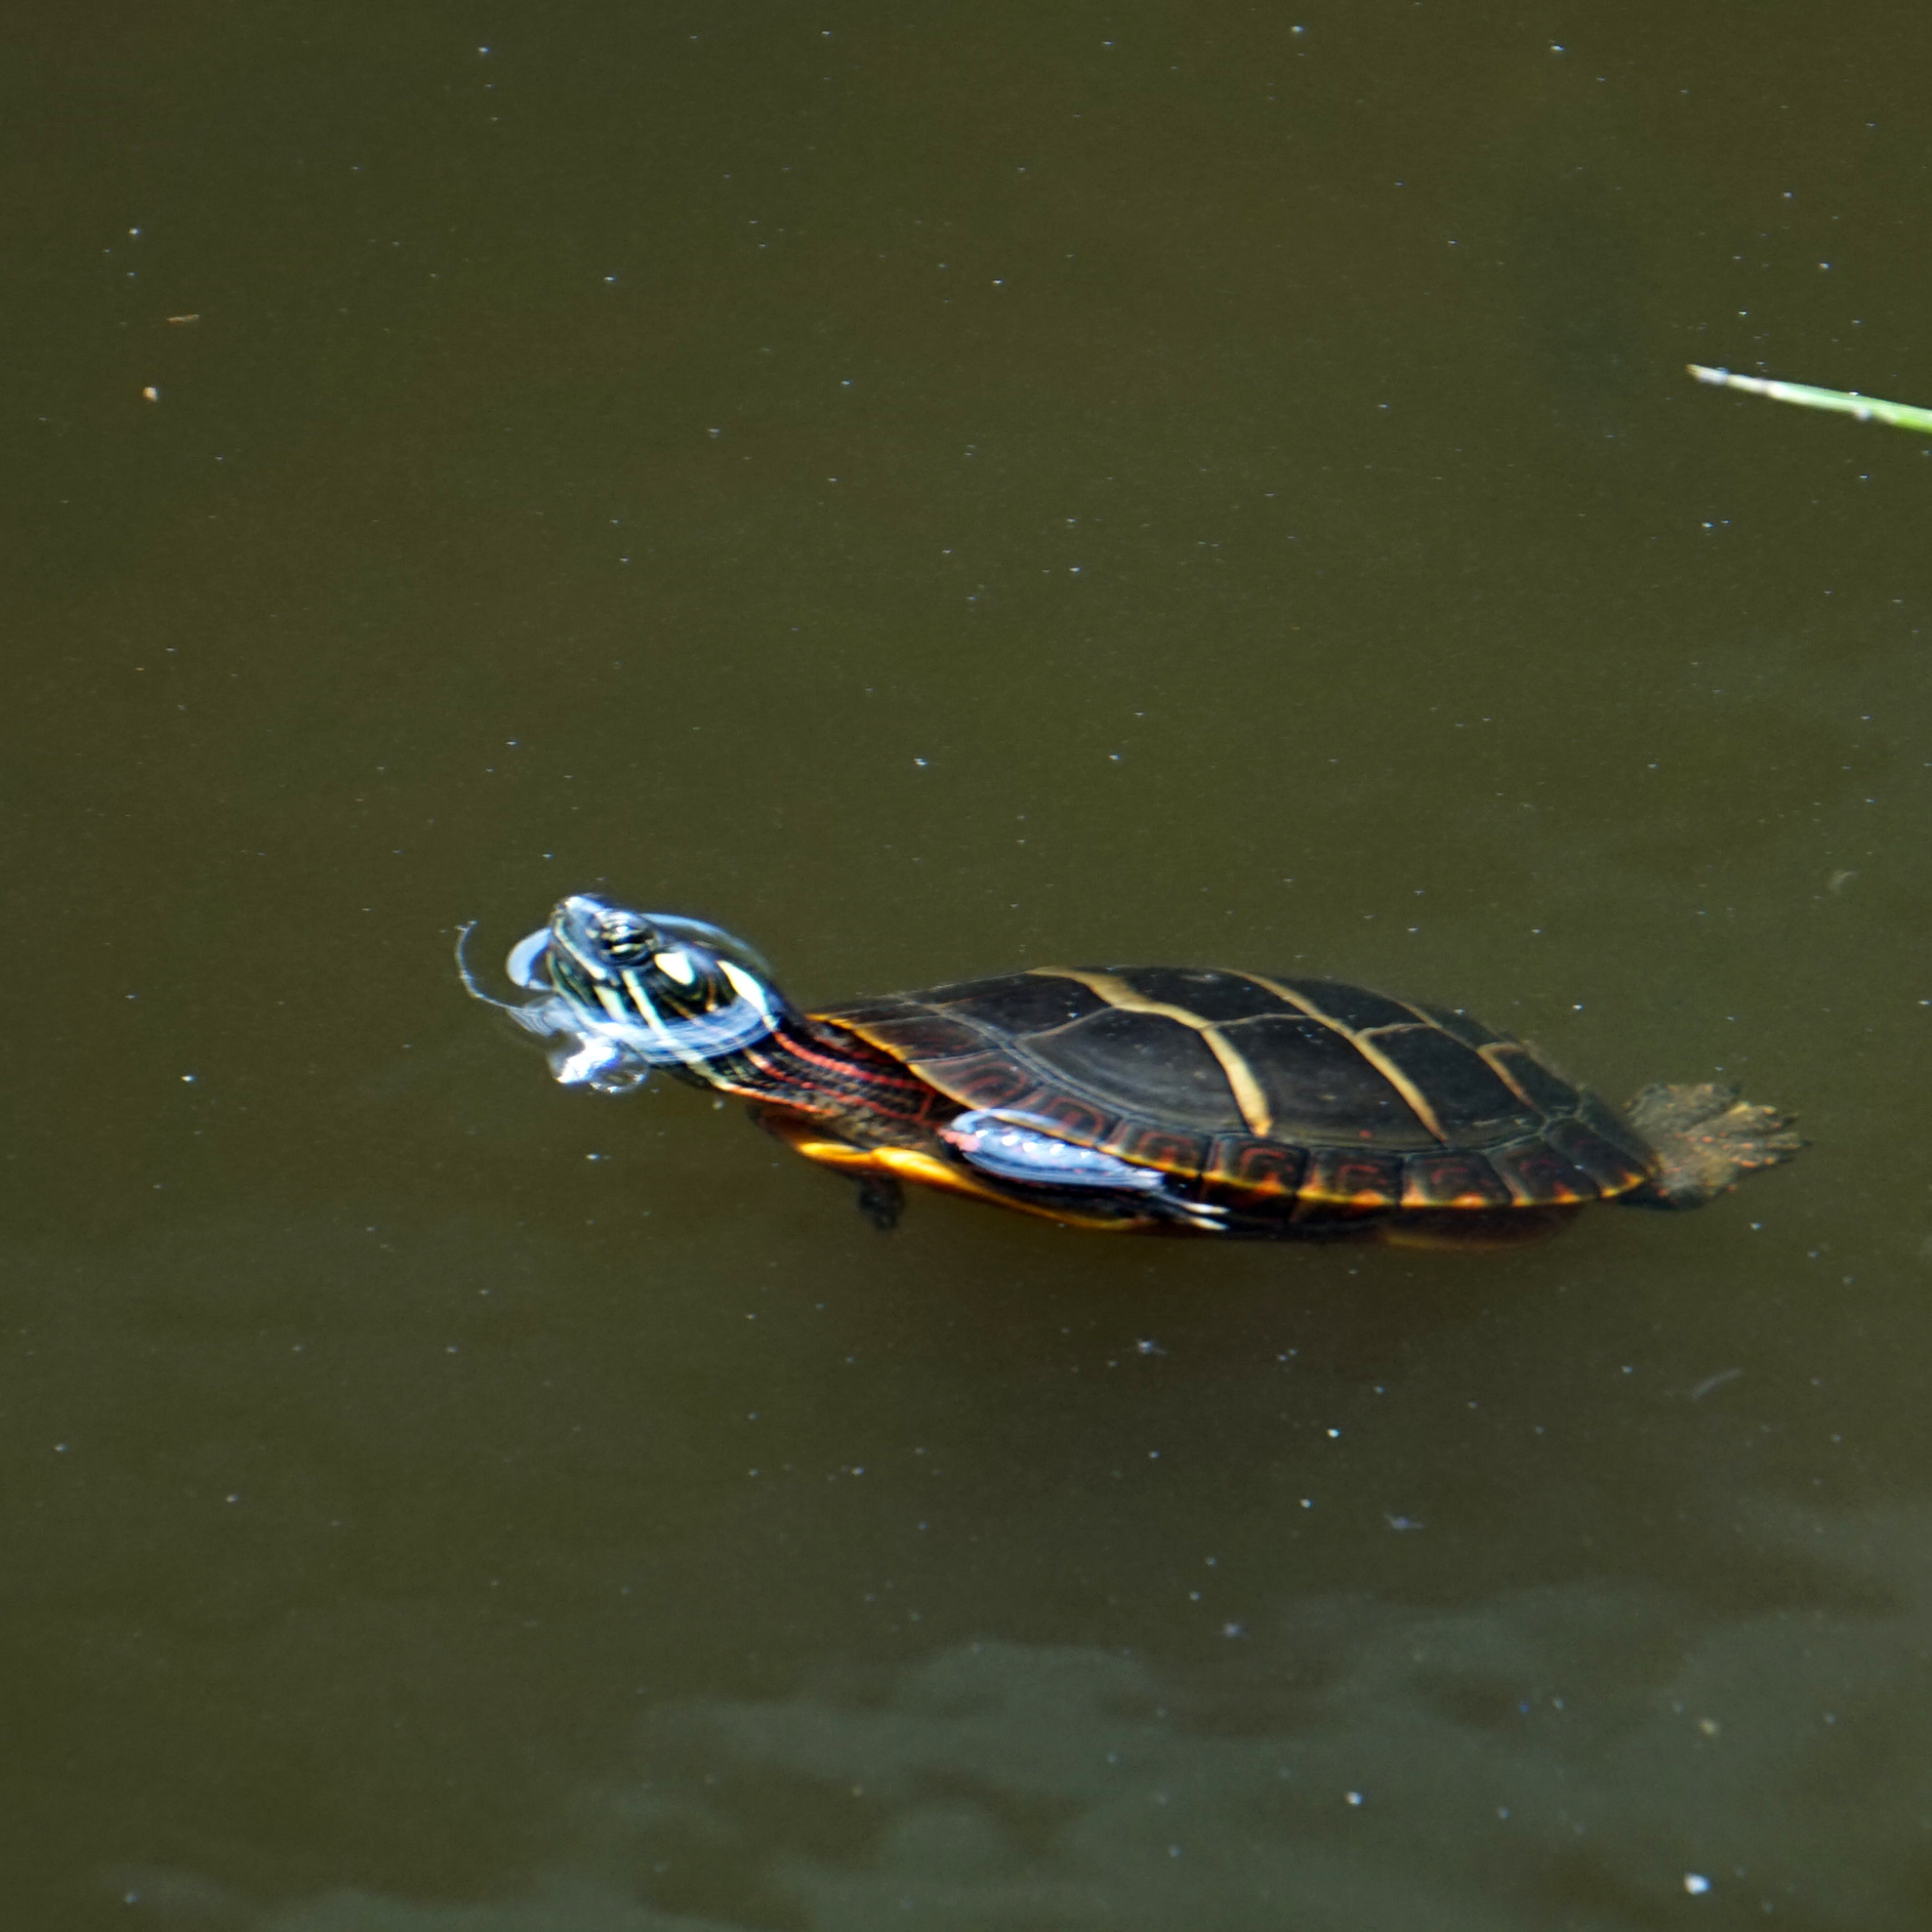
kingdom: Animalia
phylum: Chordata
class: Testudines
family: Emydidae
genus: Chrysemys
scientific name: Chrysemys picta
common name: Painted turtle
